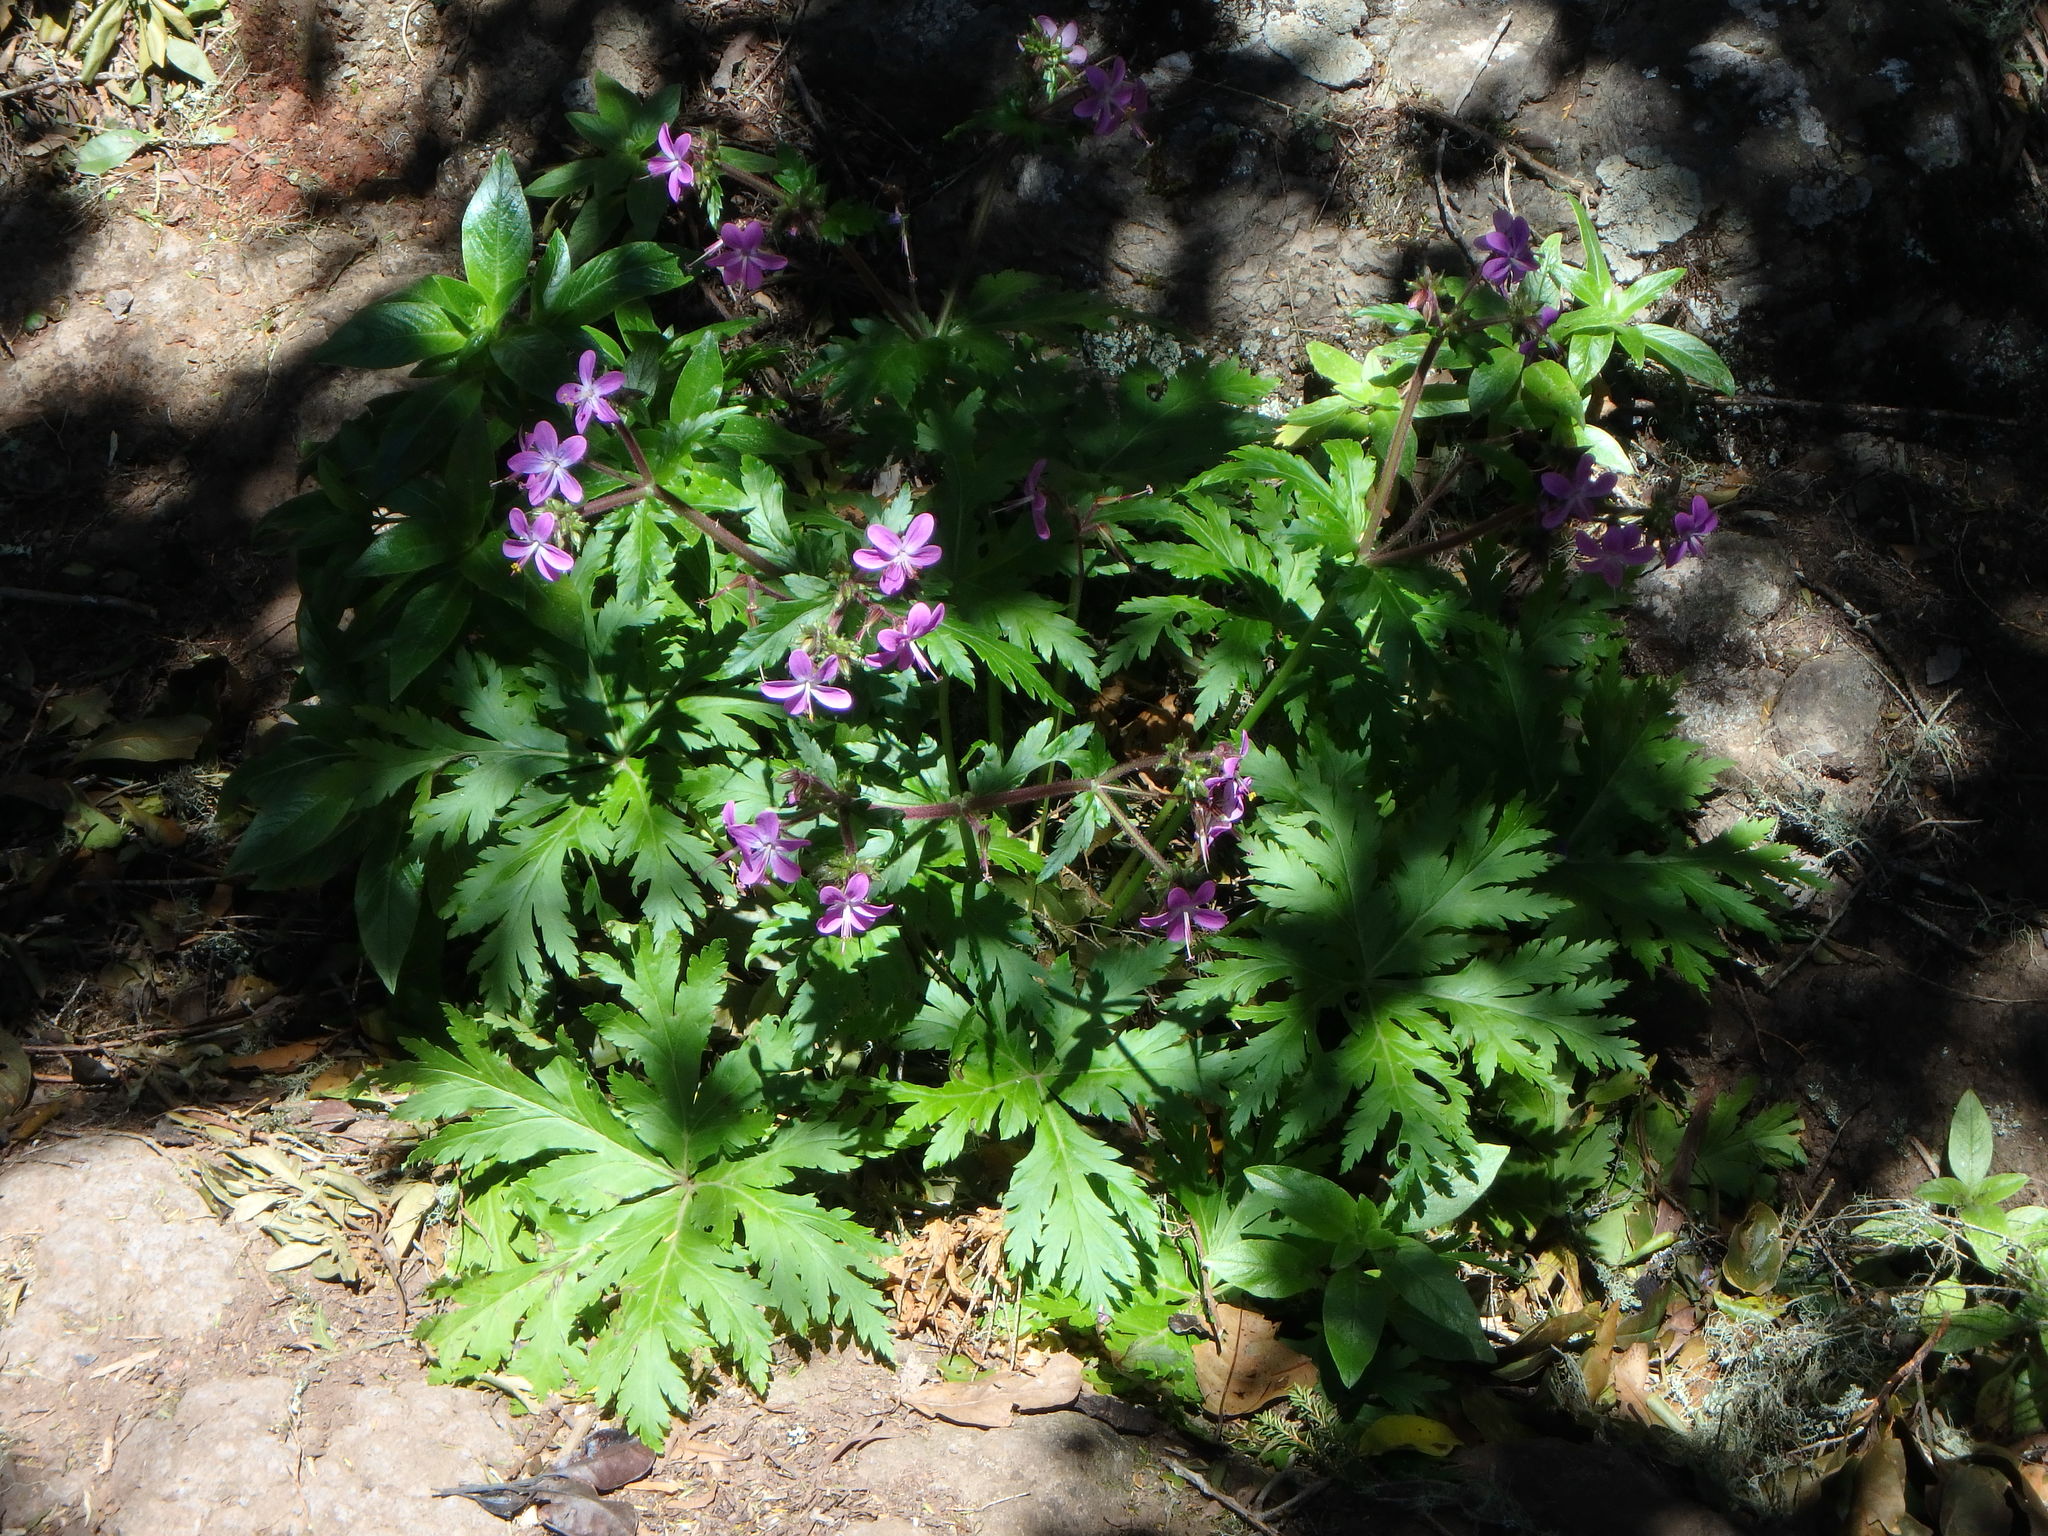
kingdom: Plantae
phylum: Tracheophyta
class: Magnoliopsida
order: Geraniales
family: Geraniaceae
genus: Geranium
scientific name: Geranium reuteri
